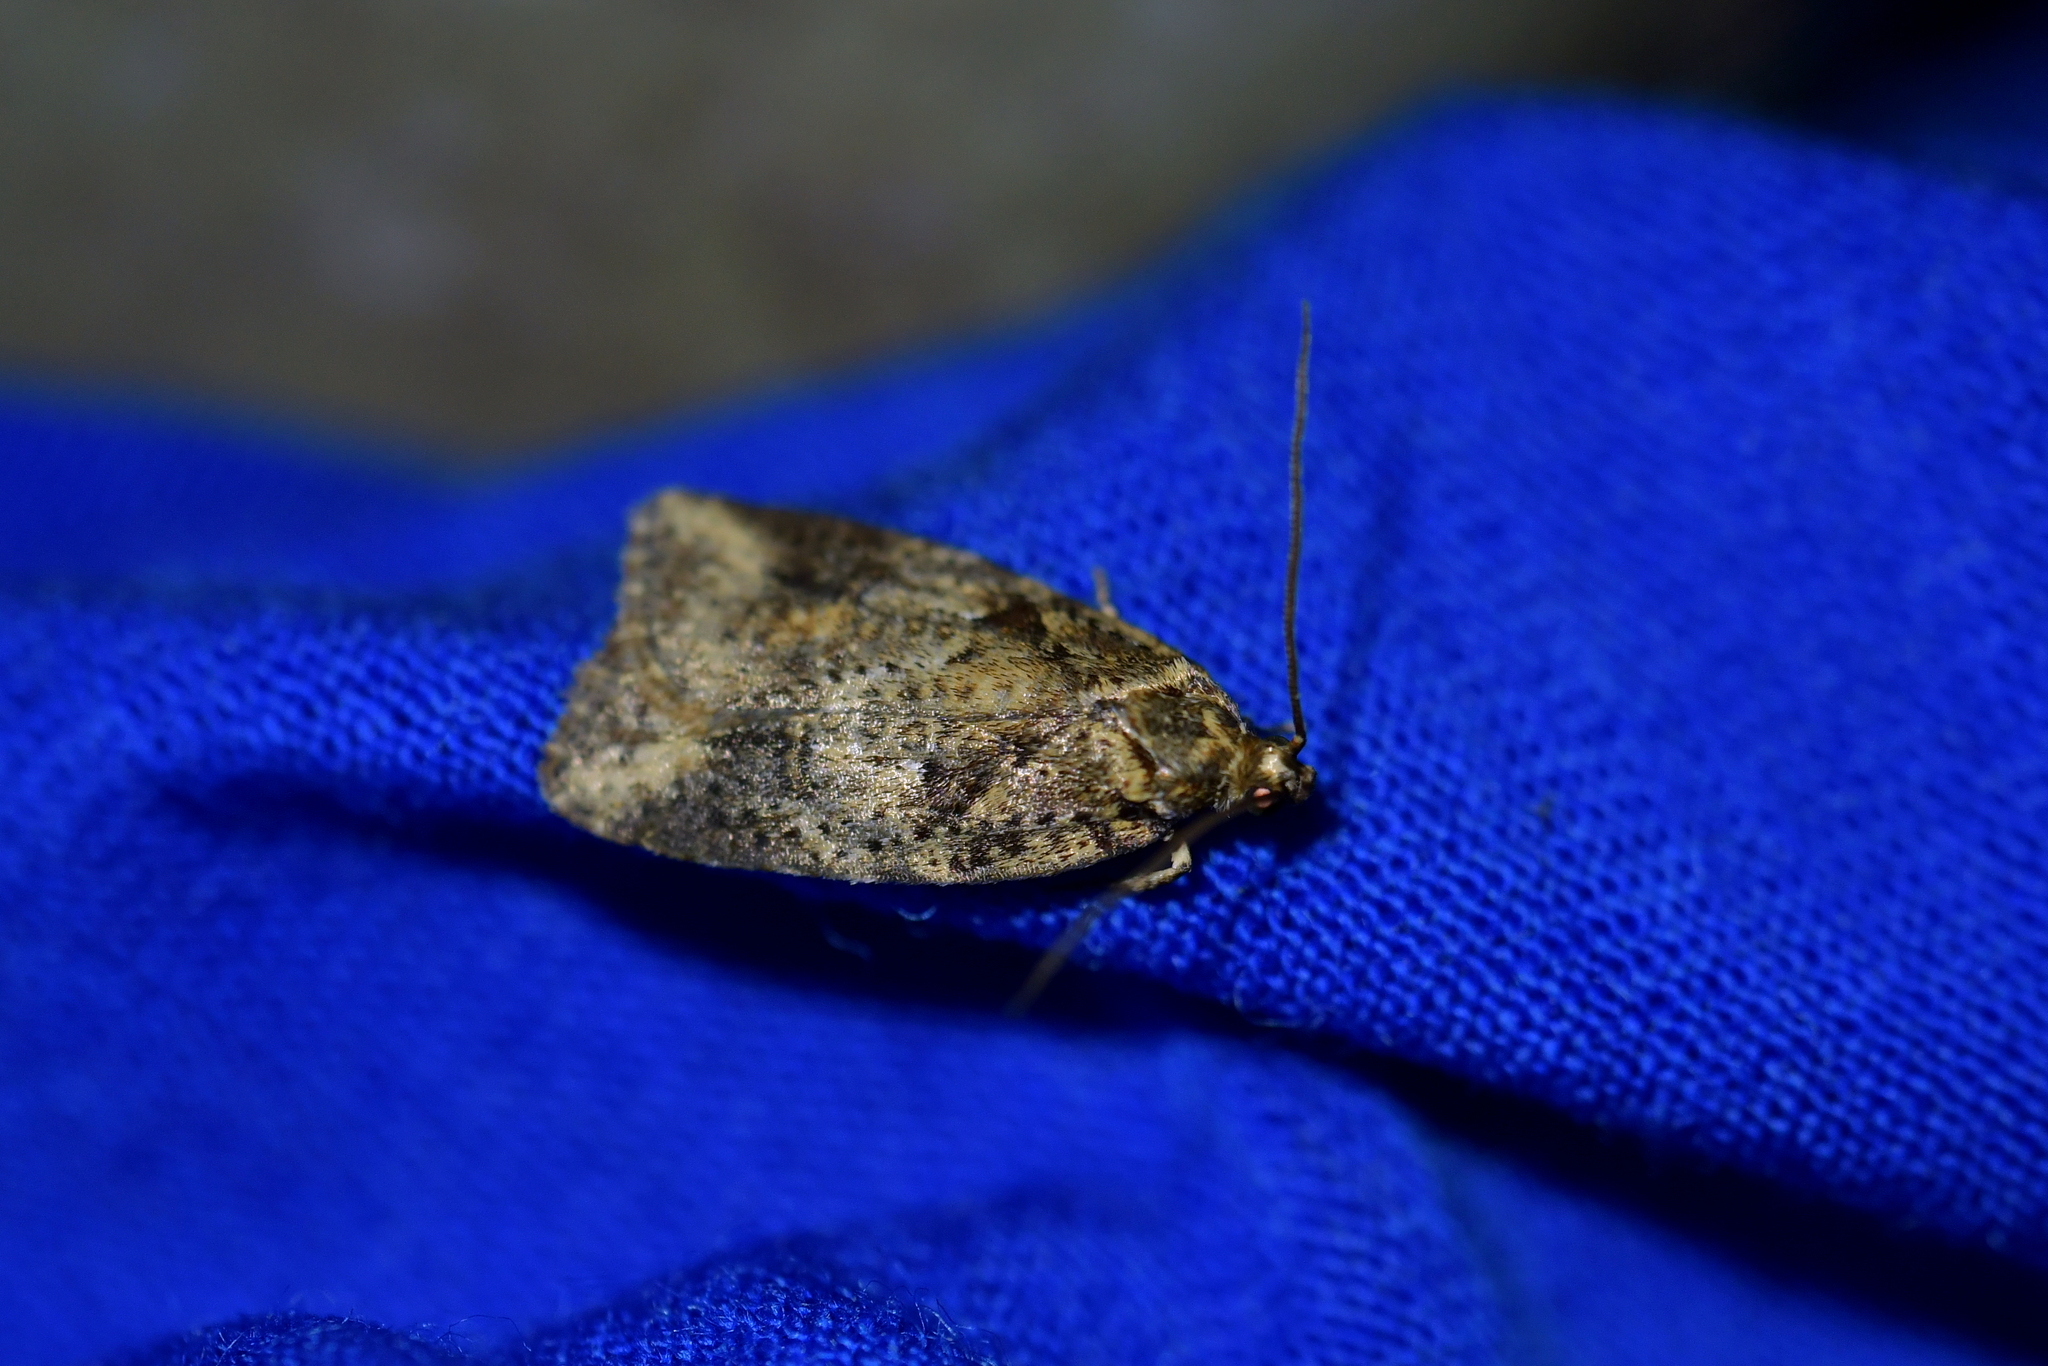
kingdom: Animalia
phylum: Arthropoda
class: Insecta
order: Lepidoptera
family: Oecophoridae
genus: Proteodes
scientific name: Proteodes profunda
